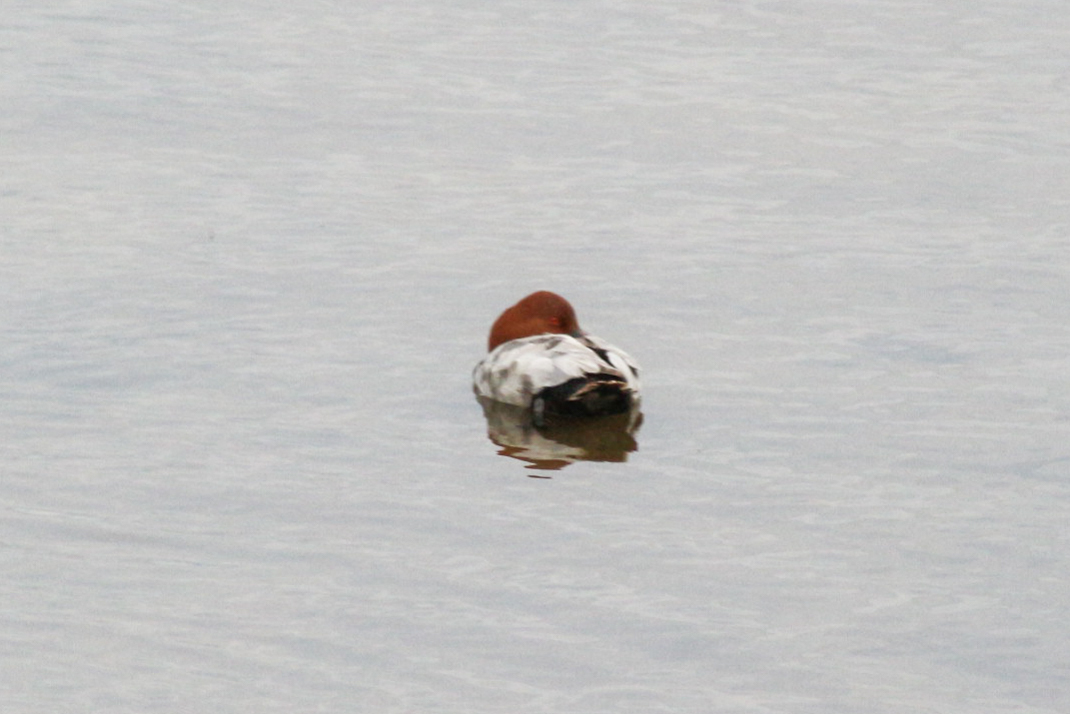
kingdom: Animalia
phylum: Chordata
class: Aves
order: Anseriformes
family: Anatidae
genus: Aythya
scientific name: Aythya ferina
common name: Common pochard
